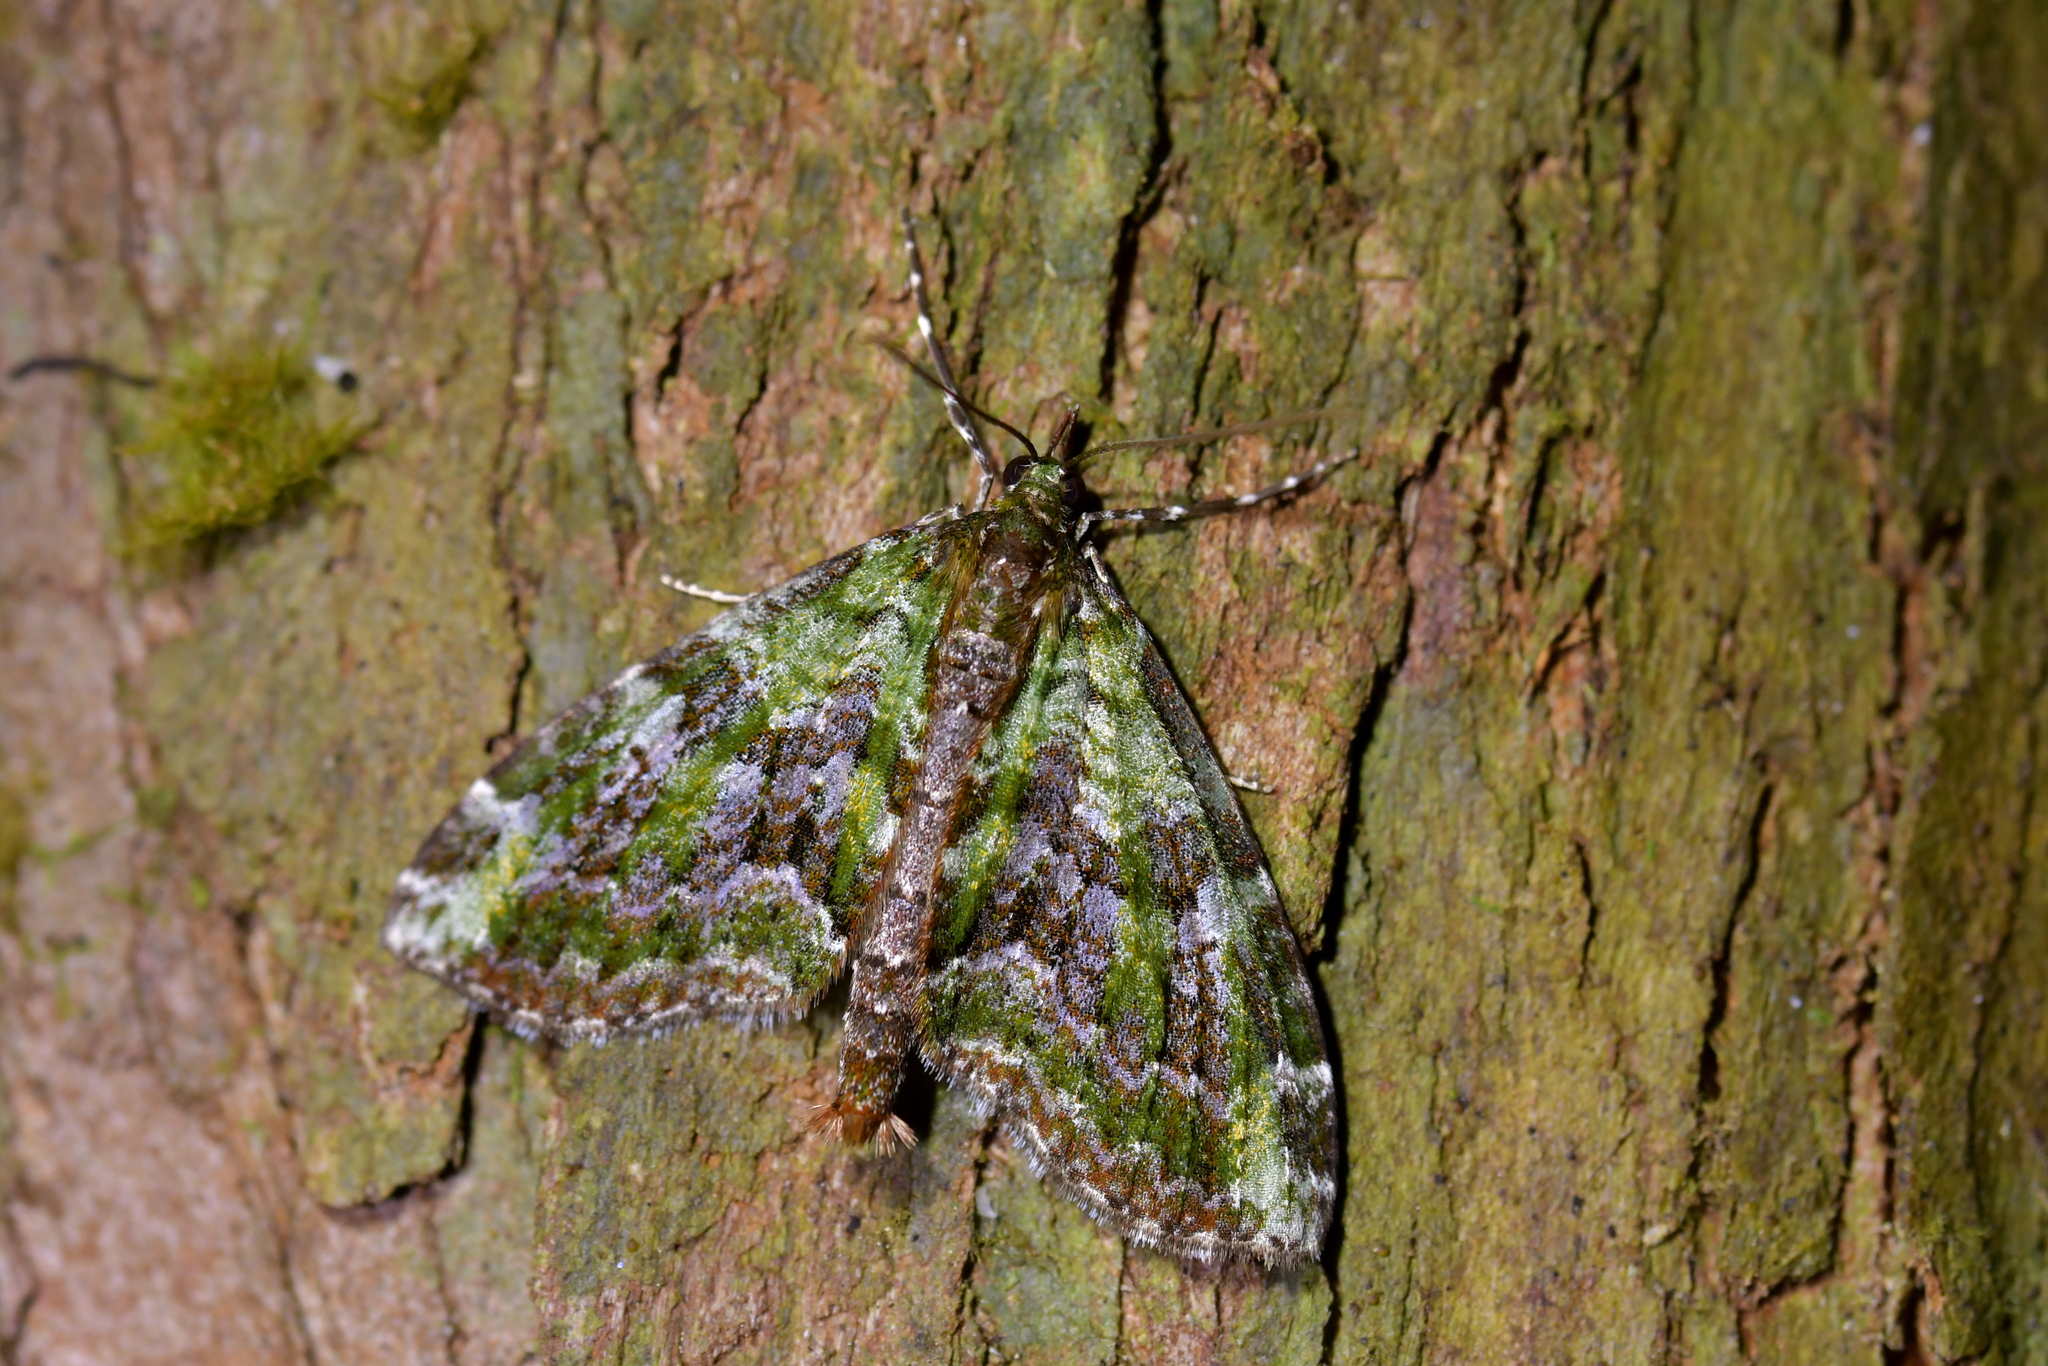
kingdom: Animalia
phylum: Arthropoda
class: Insecta
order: Lepidoptera
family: Geometridae
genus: Tatosoma
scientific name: Tatosoma apicipallida
